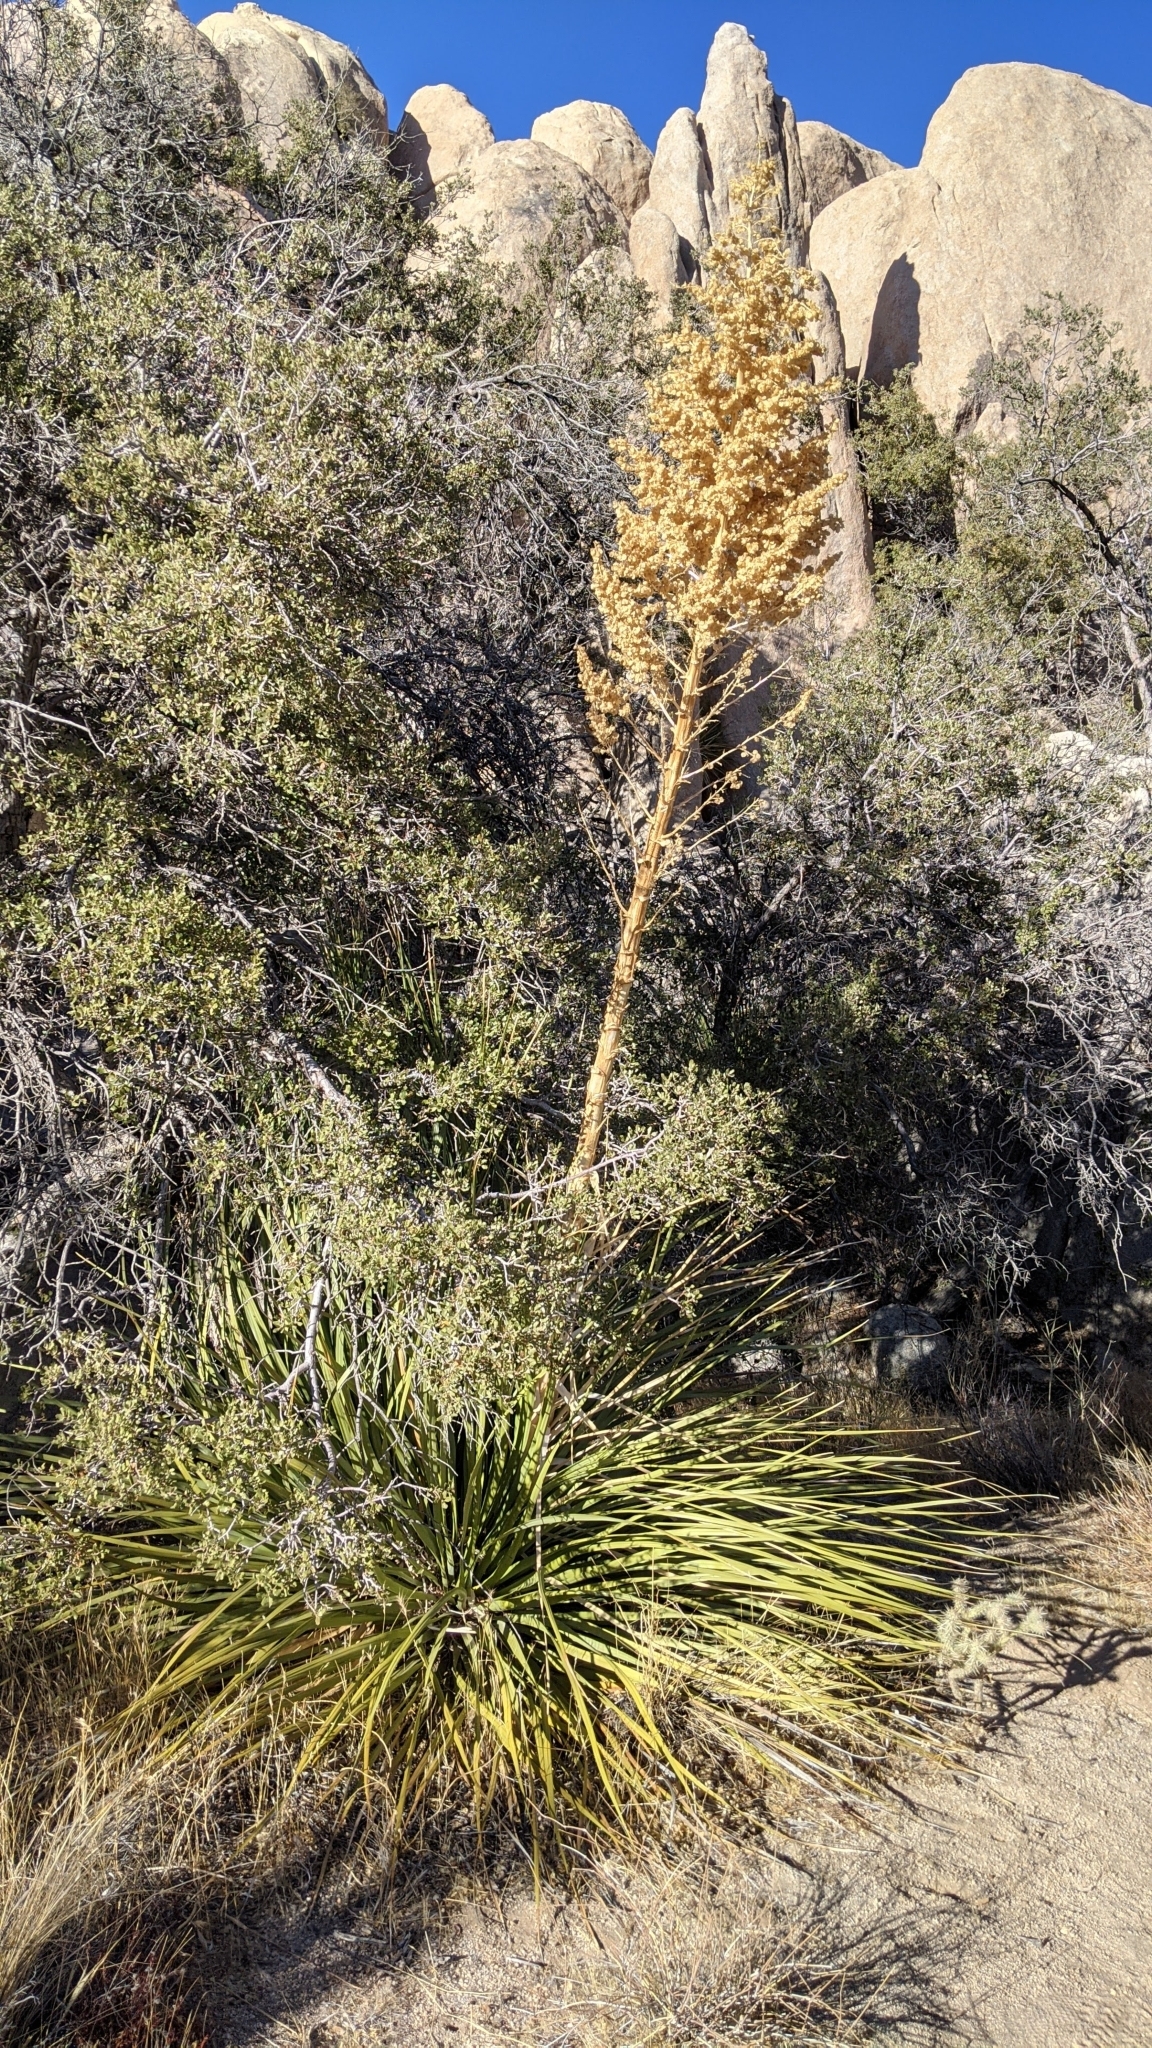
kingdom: Plantae
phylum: Tracheophyta
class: Liliopsida
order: Asparagales
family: Asparagaceae
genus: Nolina
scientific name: Nolina parryi
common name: Parry nolina
